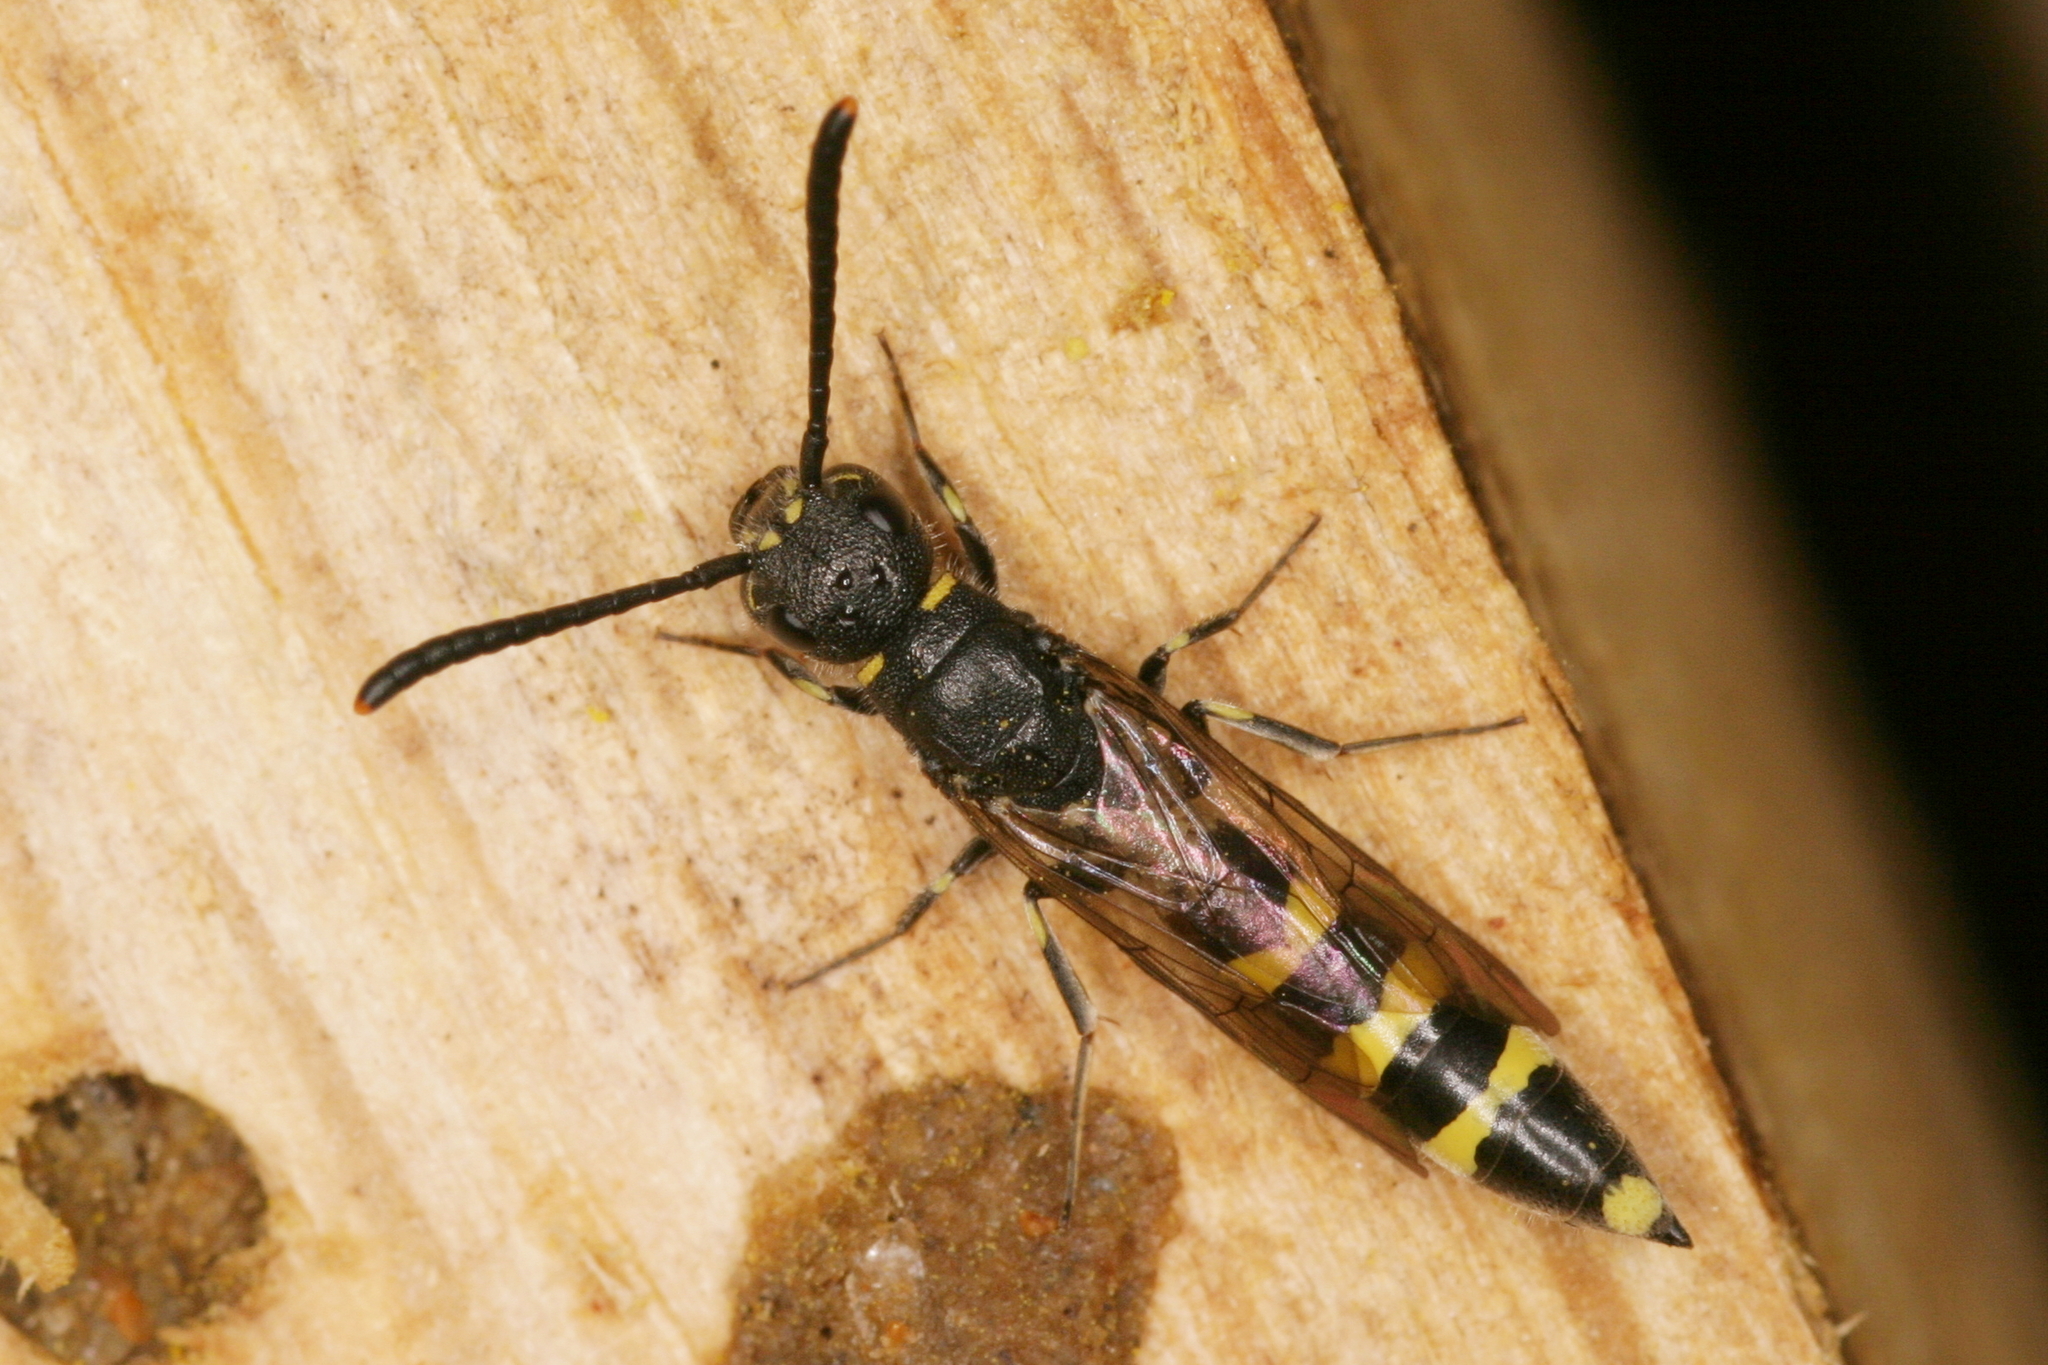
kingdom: Animalia
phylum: Arthropoda
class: Insecta
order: Hymenoptera
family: Sapygidae
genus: Monosapyga
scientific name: Monosapyga clavicornis
